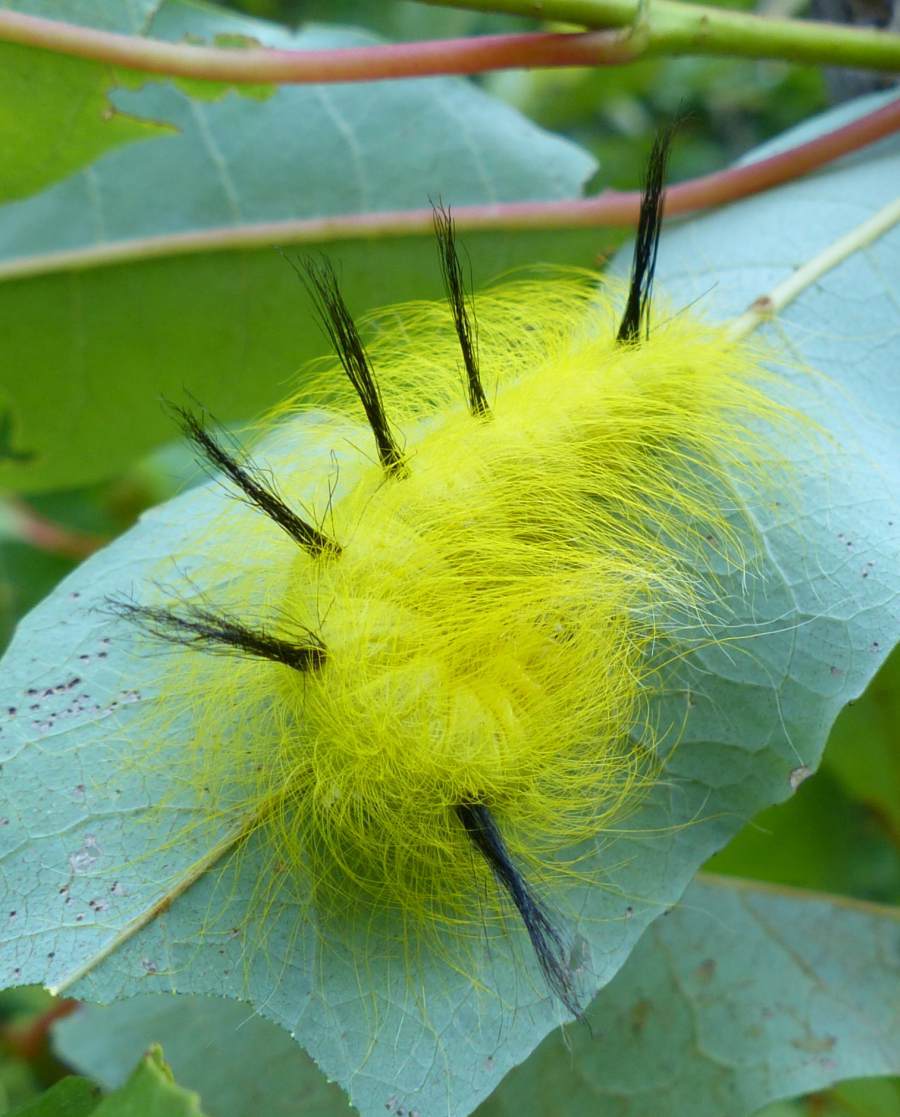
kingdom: Animalia
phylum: Arthropoda
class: Insecta
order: Lepidoptera
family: Noctuidae
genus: Acronicta
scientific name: Acronicta lepusculina
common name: Cottonwood dagger
